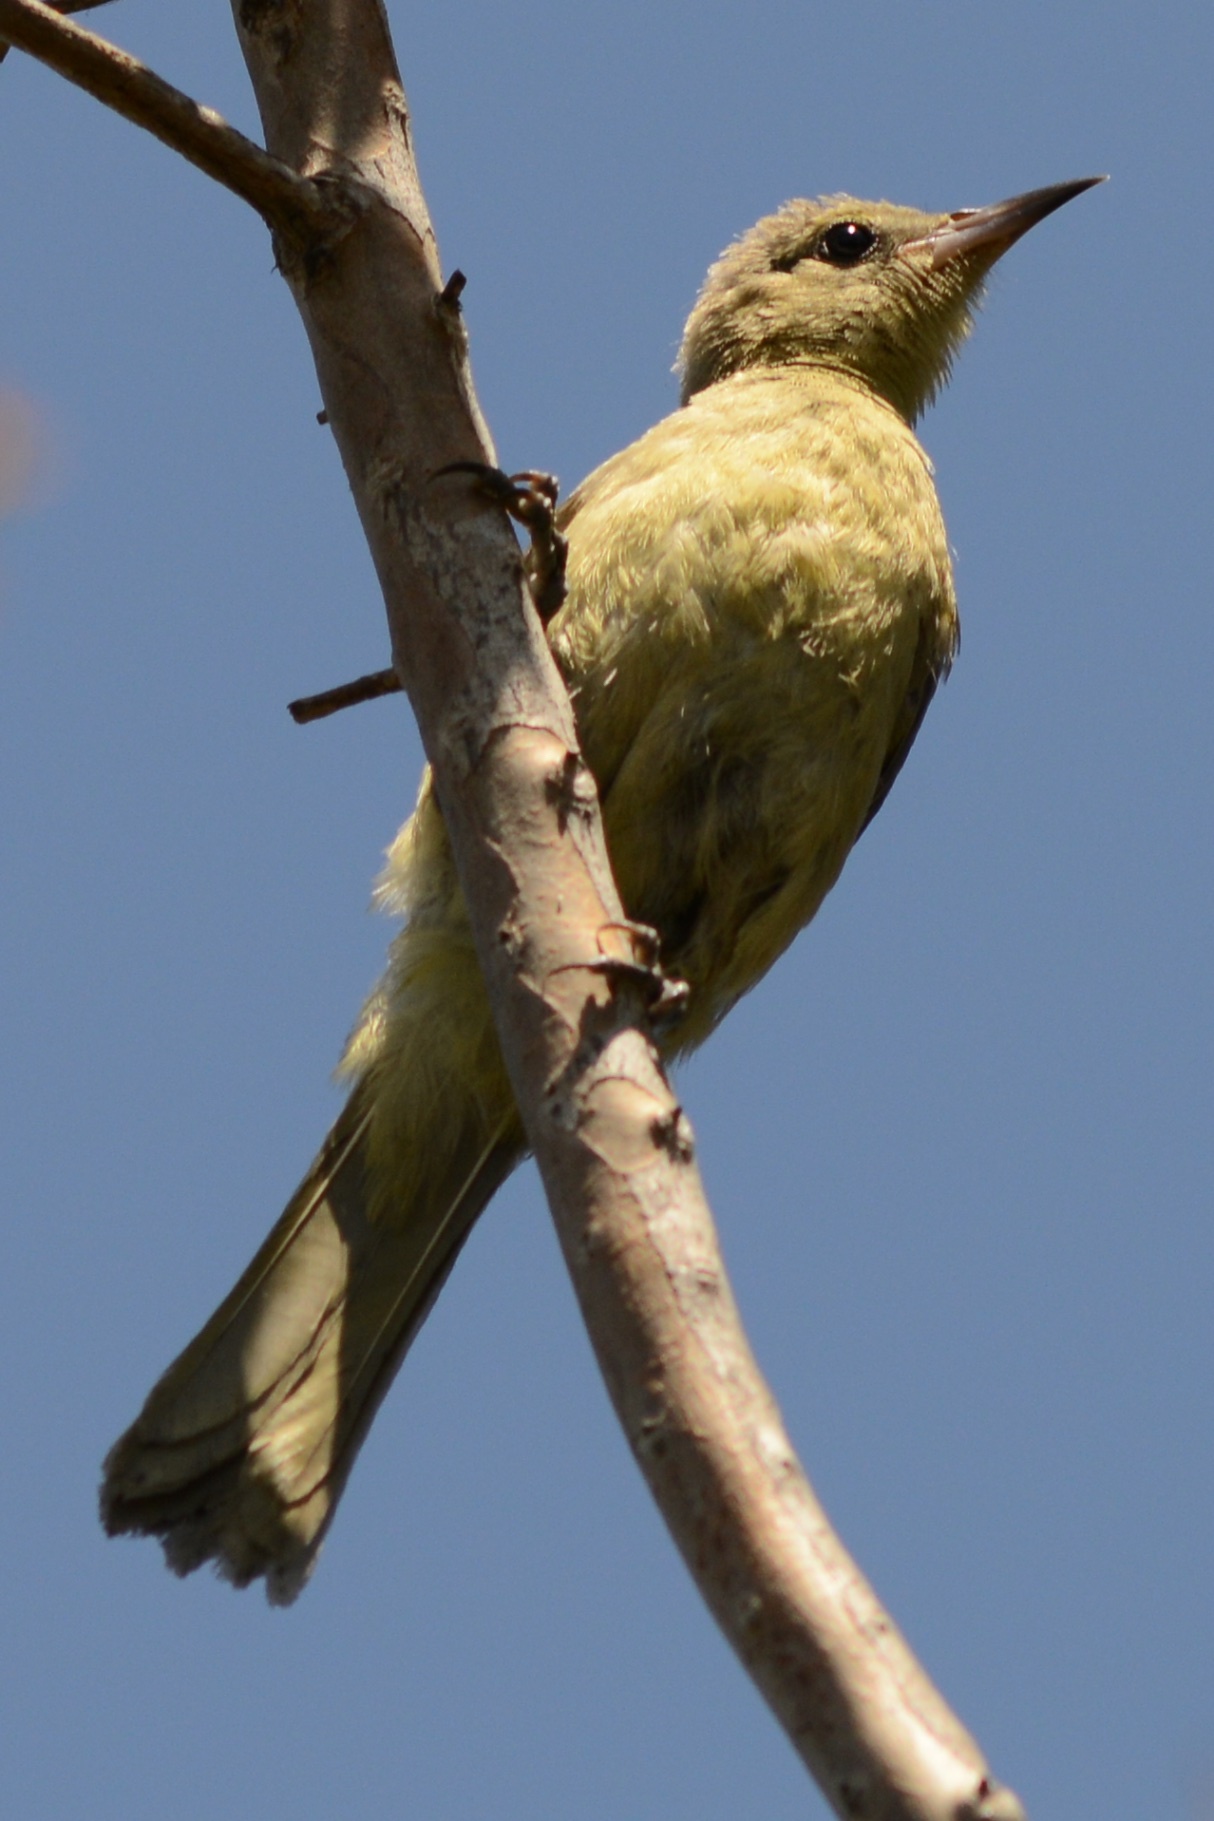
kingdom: Animalia
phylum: Chordata
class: Aves
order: Passeriformes
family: Icteridae
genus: Icterus
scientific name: Icterus cucullatus
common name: Hooded oriole
